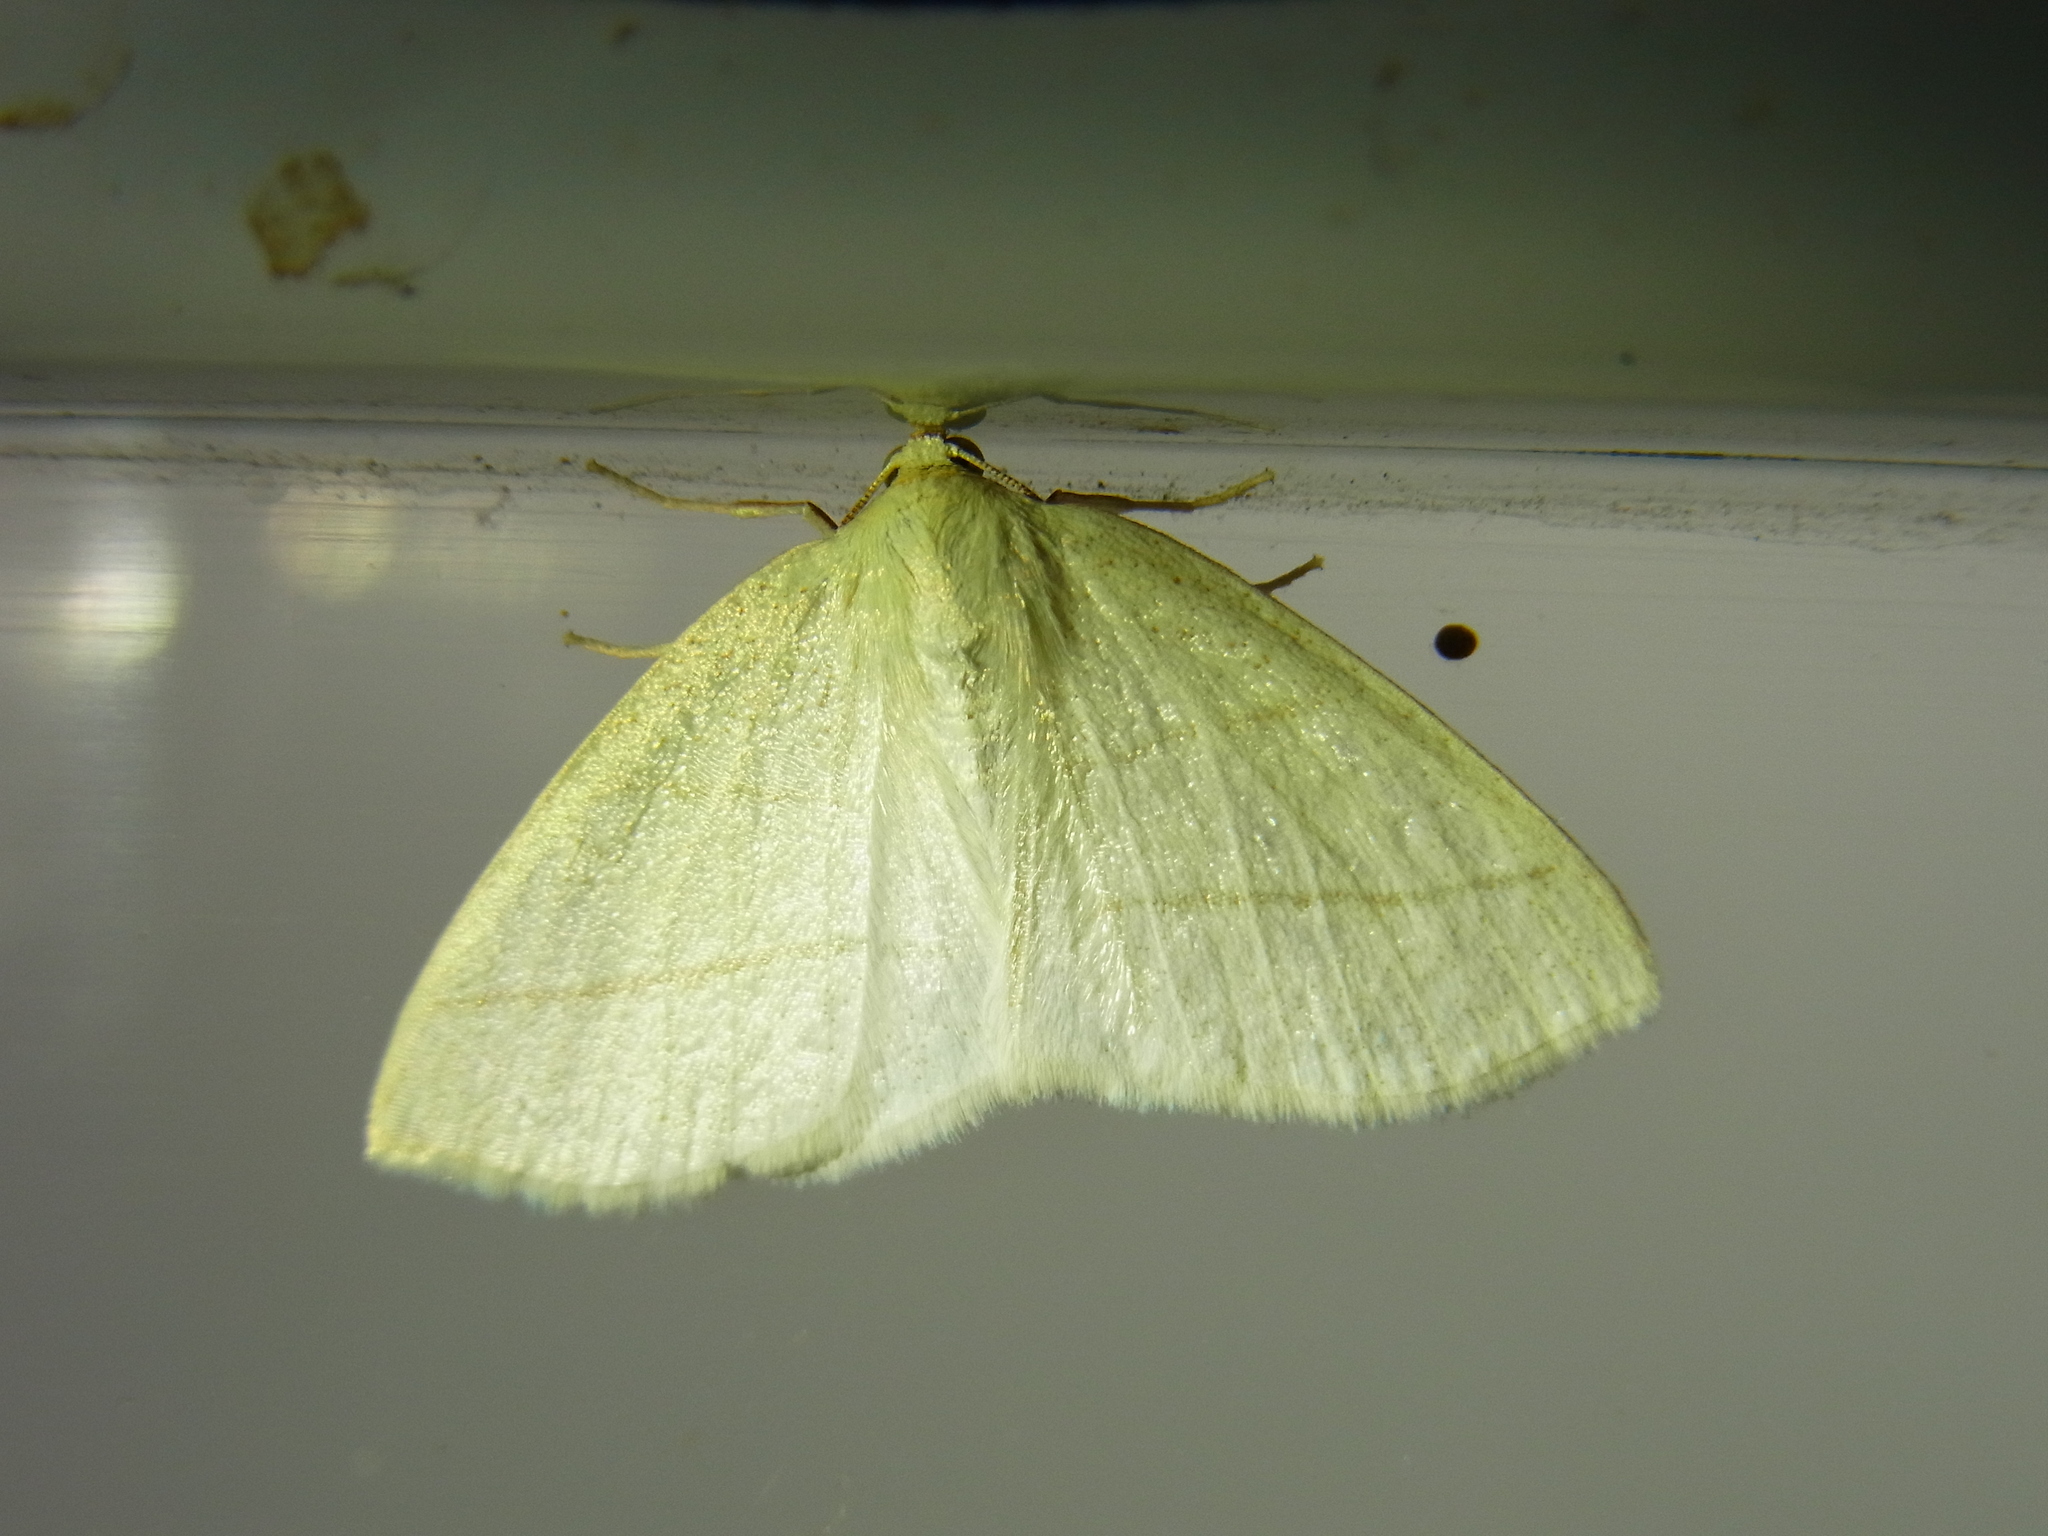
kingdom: Animalia
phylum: Arthropoda
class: Insecta
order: Lepidoptera
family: Geometridae
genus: Parabapta
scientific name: Parabapta clarissa
